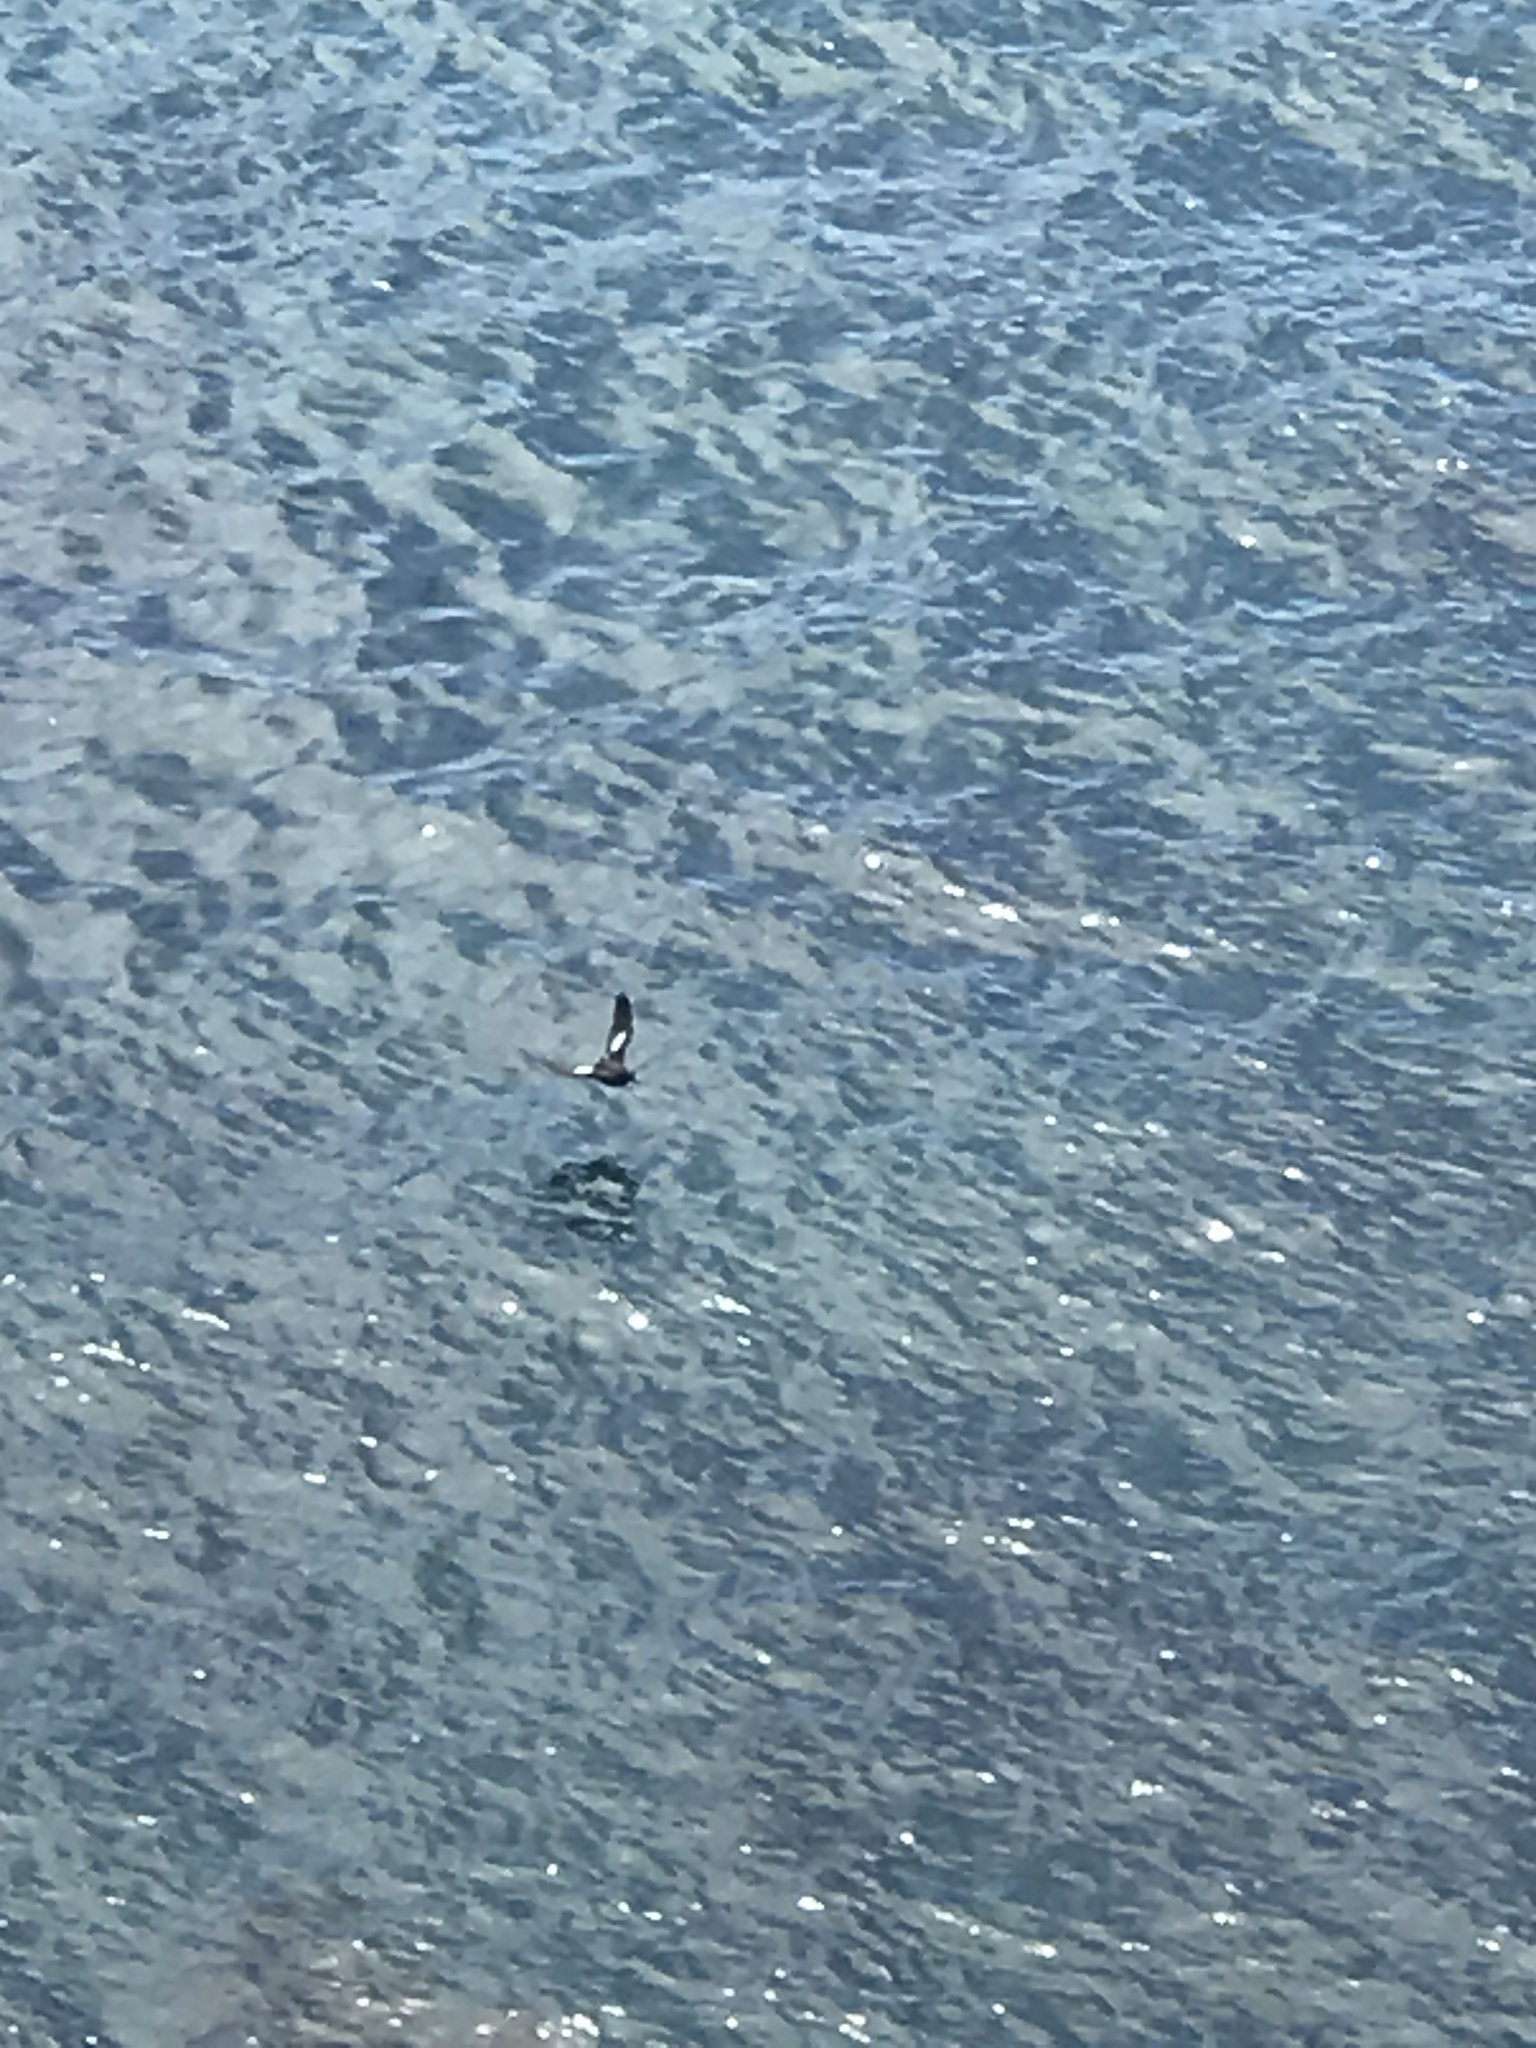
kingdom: Animalia
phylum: Chordata
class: Aves
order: Charadriiformes
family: Alcidae
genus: Cepphus
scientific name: Cepphus columba
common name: Pigeon guillemot
